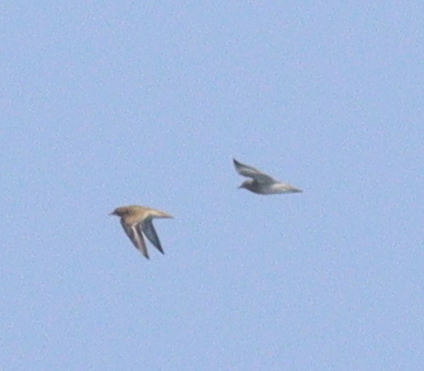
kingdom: Animalia
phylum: Chordata
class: Aves
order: Charadriiformes
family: Charadriidae
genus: Pluvialis
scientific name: Pluvialis apricaria
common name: European golden plover
